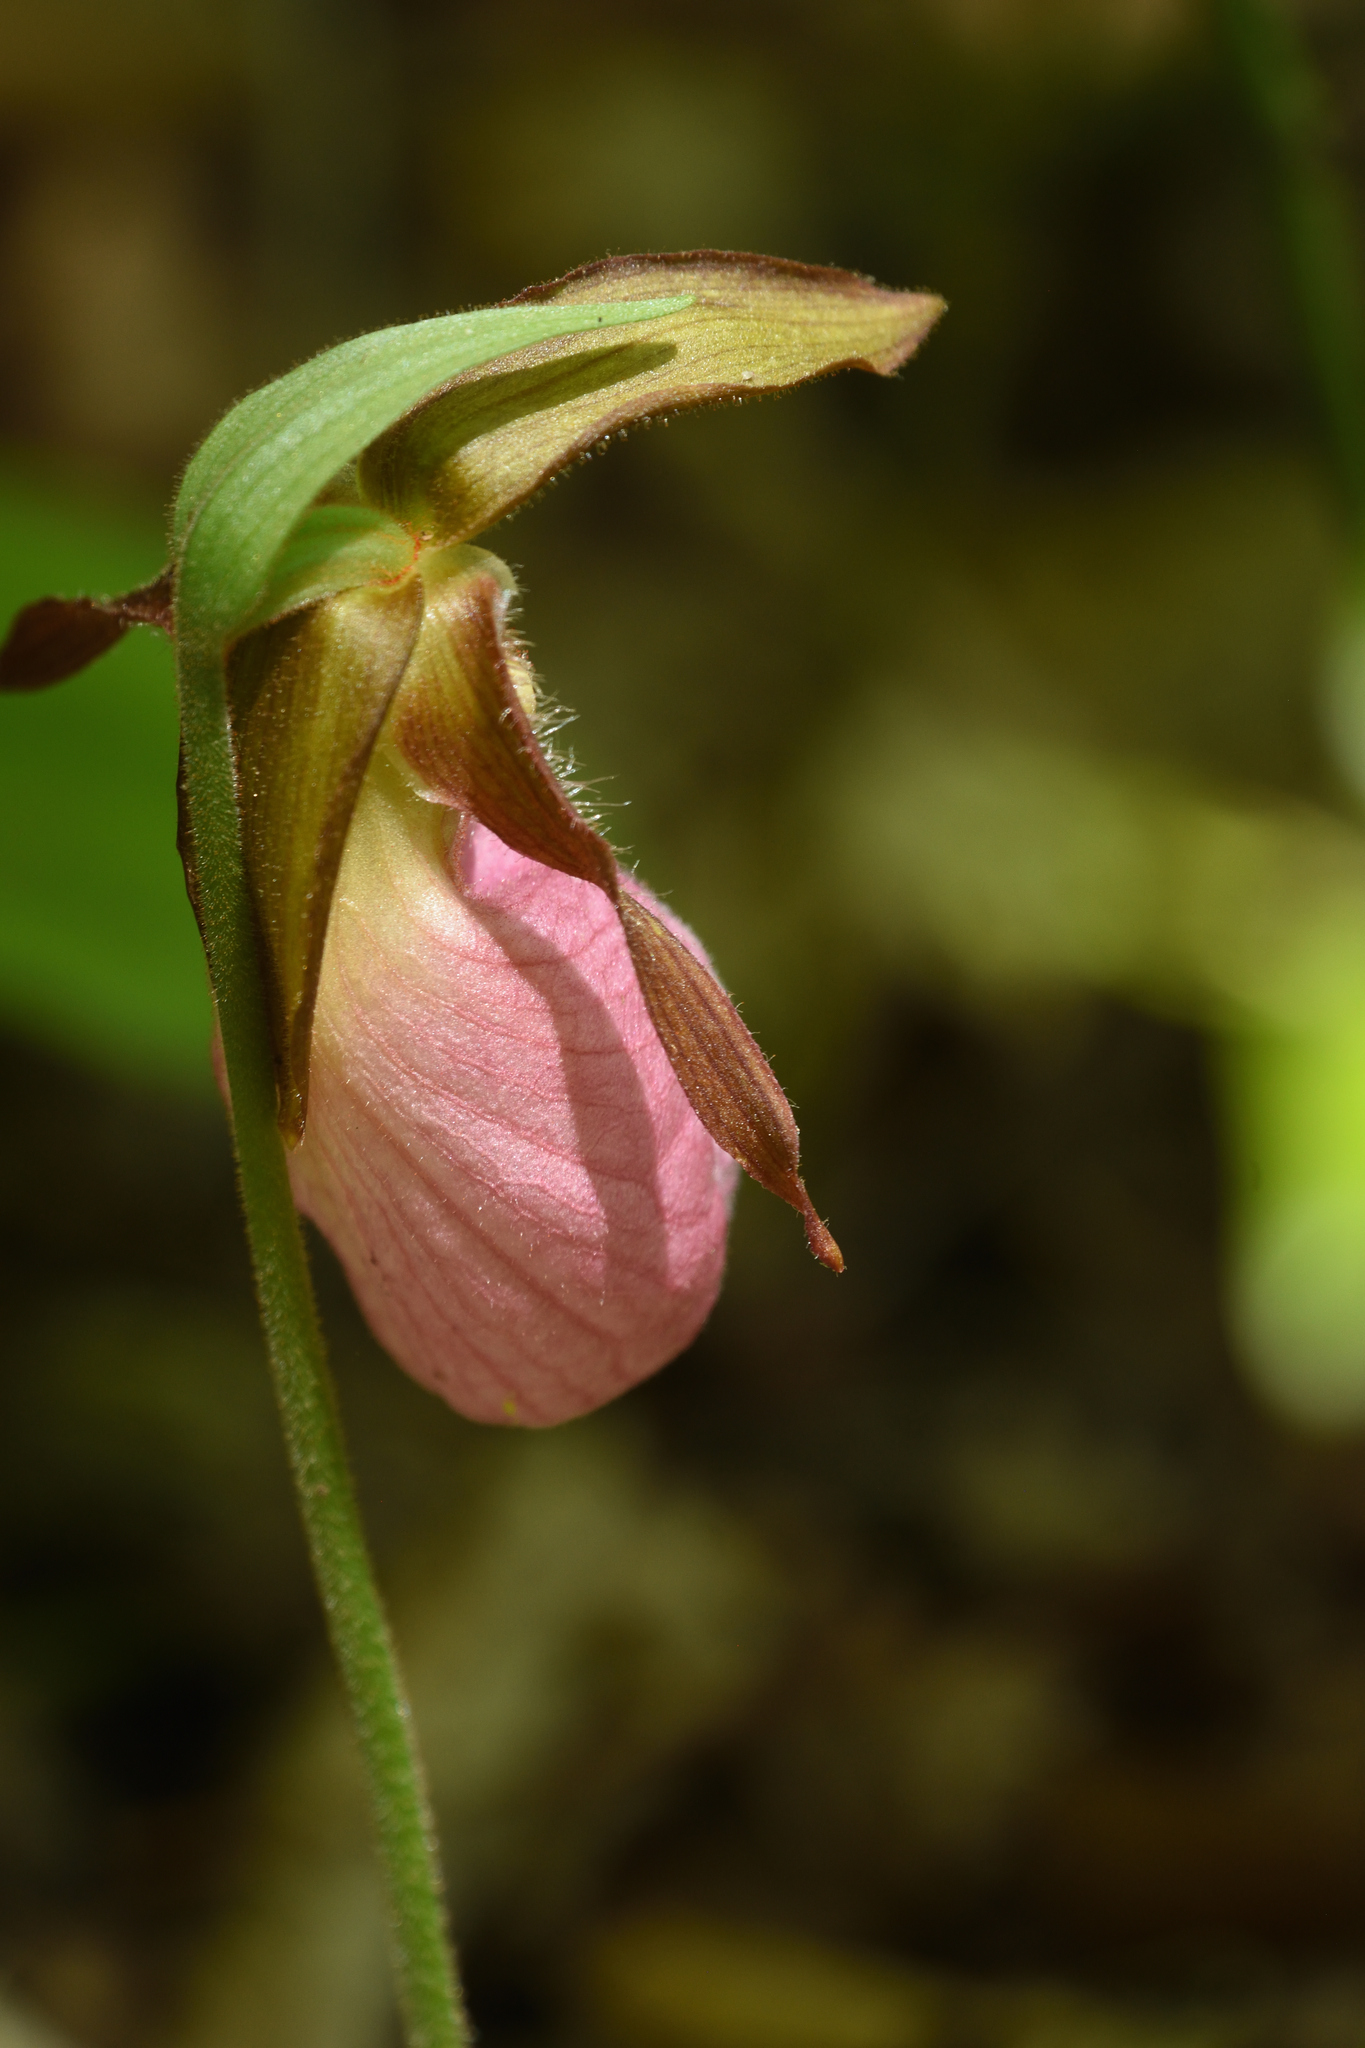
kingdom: Plantae
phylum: Tracheophyta
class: Liliopsida
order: Asparagales
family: Orchidaceae
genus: Cypripedium
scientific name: Cypripedium acaule
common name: Pink lady's-slipper
